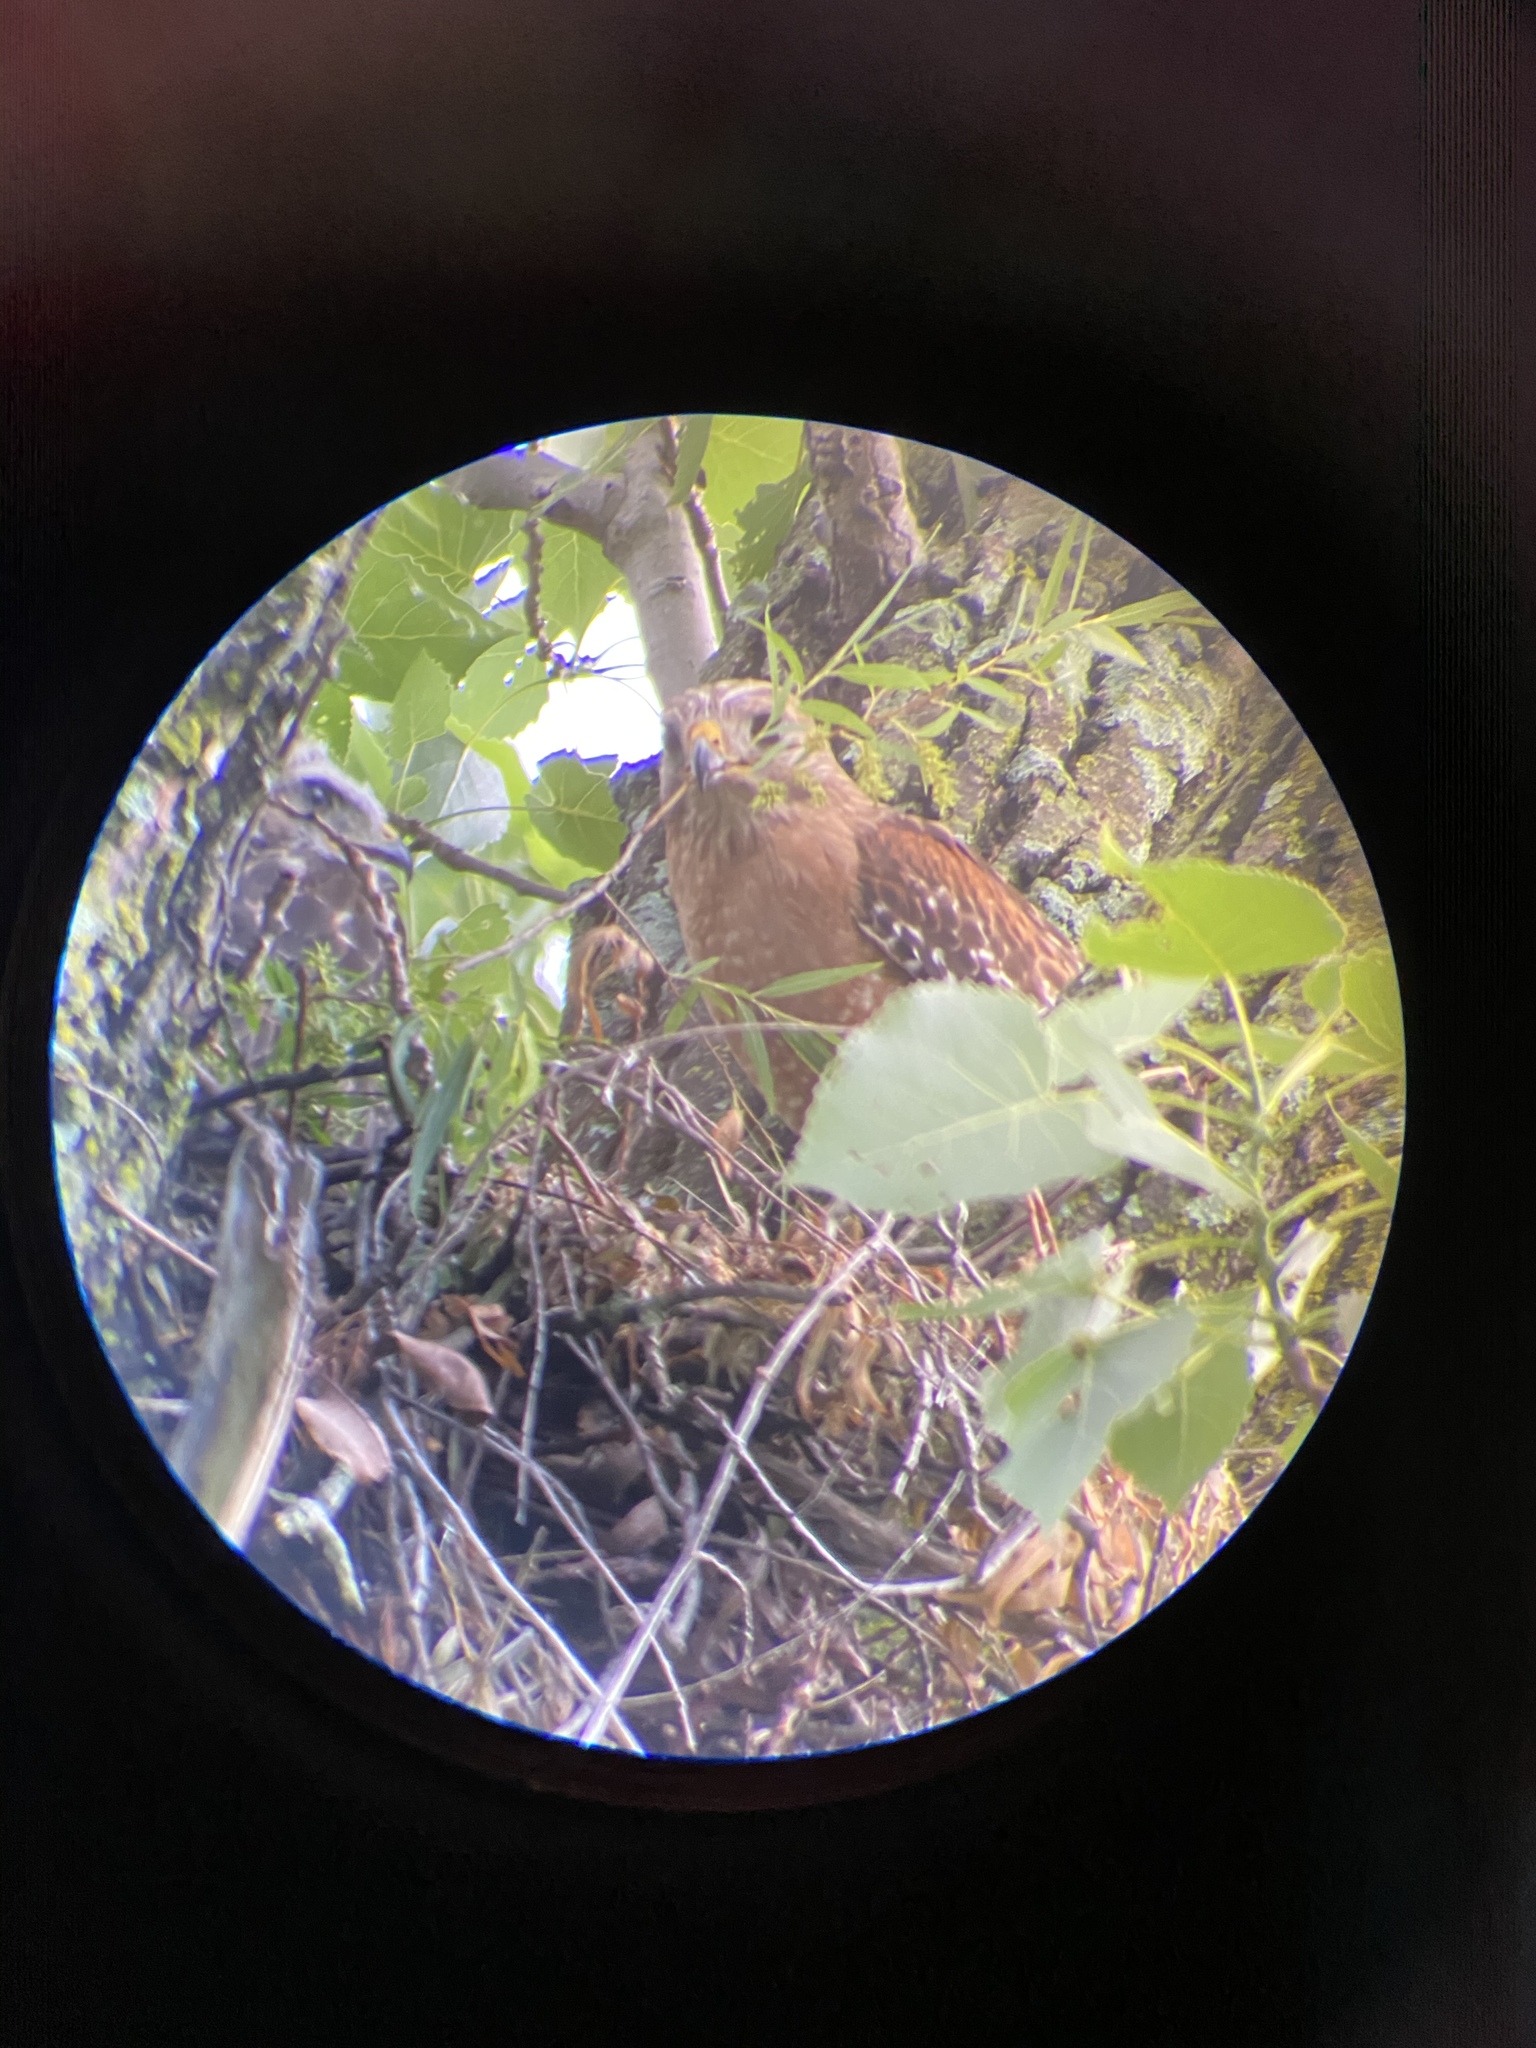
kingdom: Animalia
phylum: Chordata
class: Aves
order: Accipitriformes
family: Accipitridae
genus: Buteo
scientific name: Buteo lineatus
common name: Red-shouldered hawk
